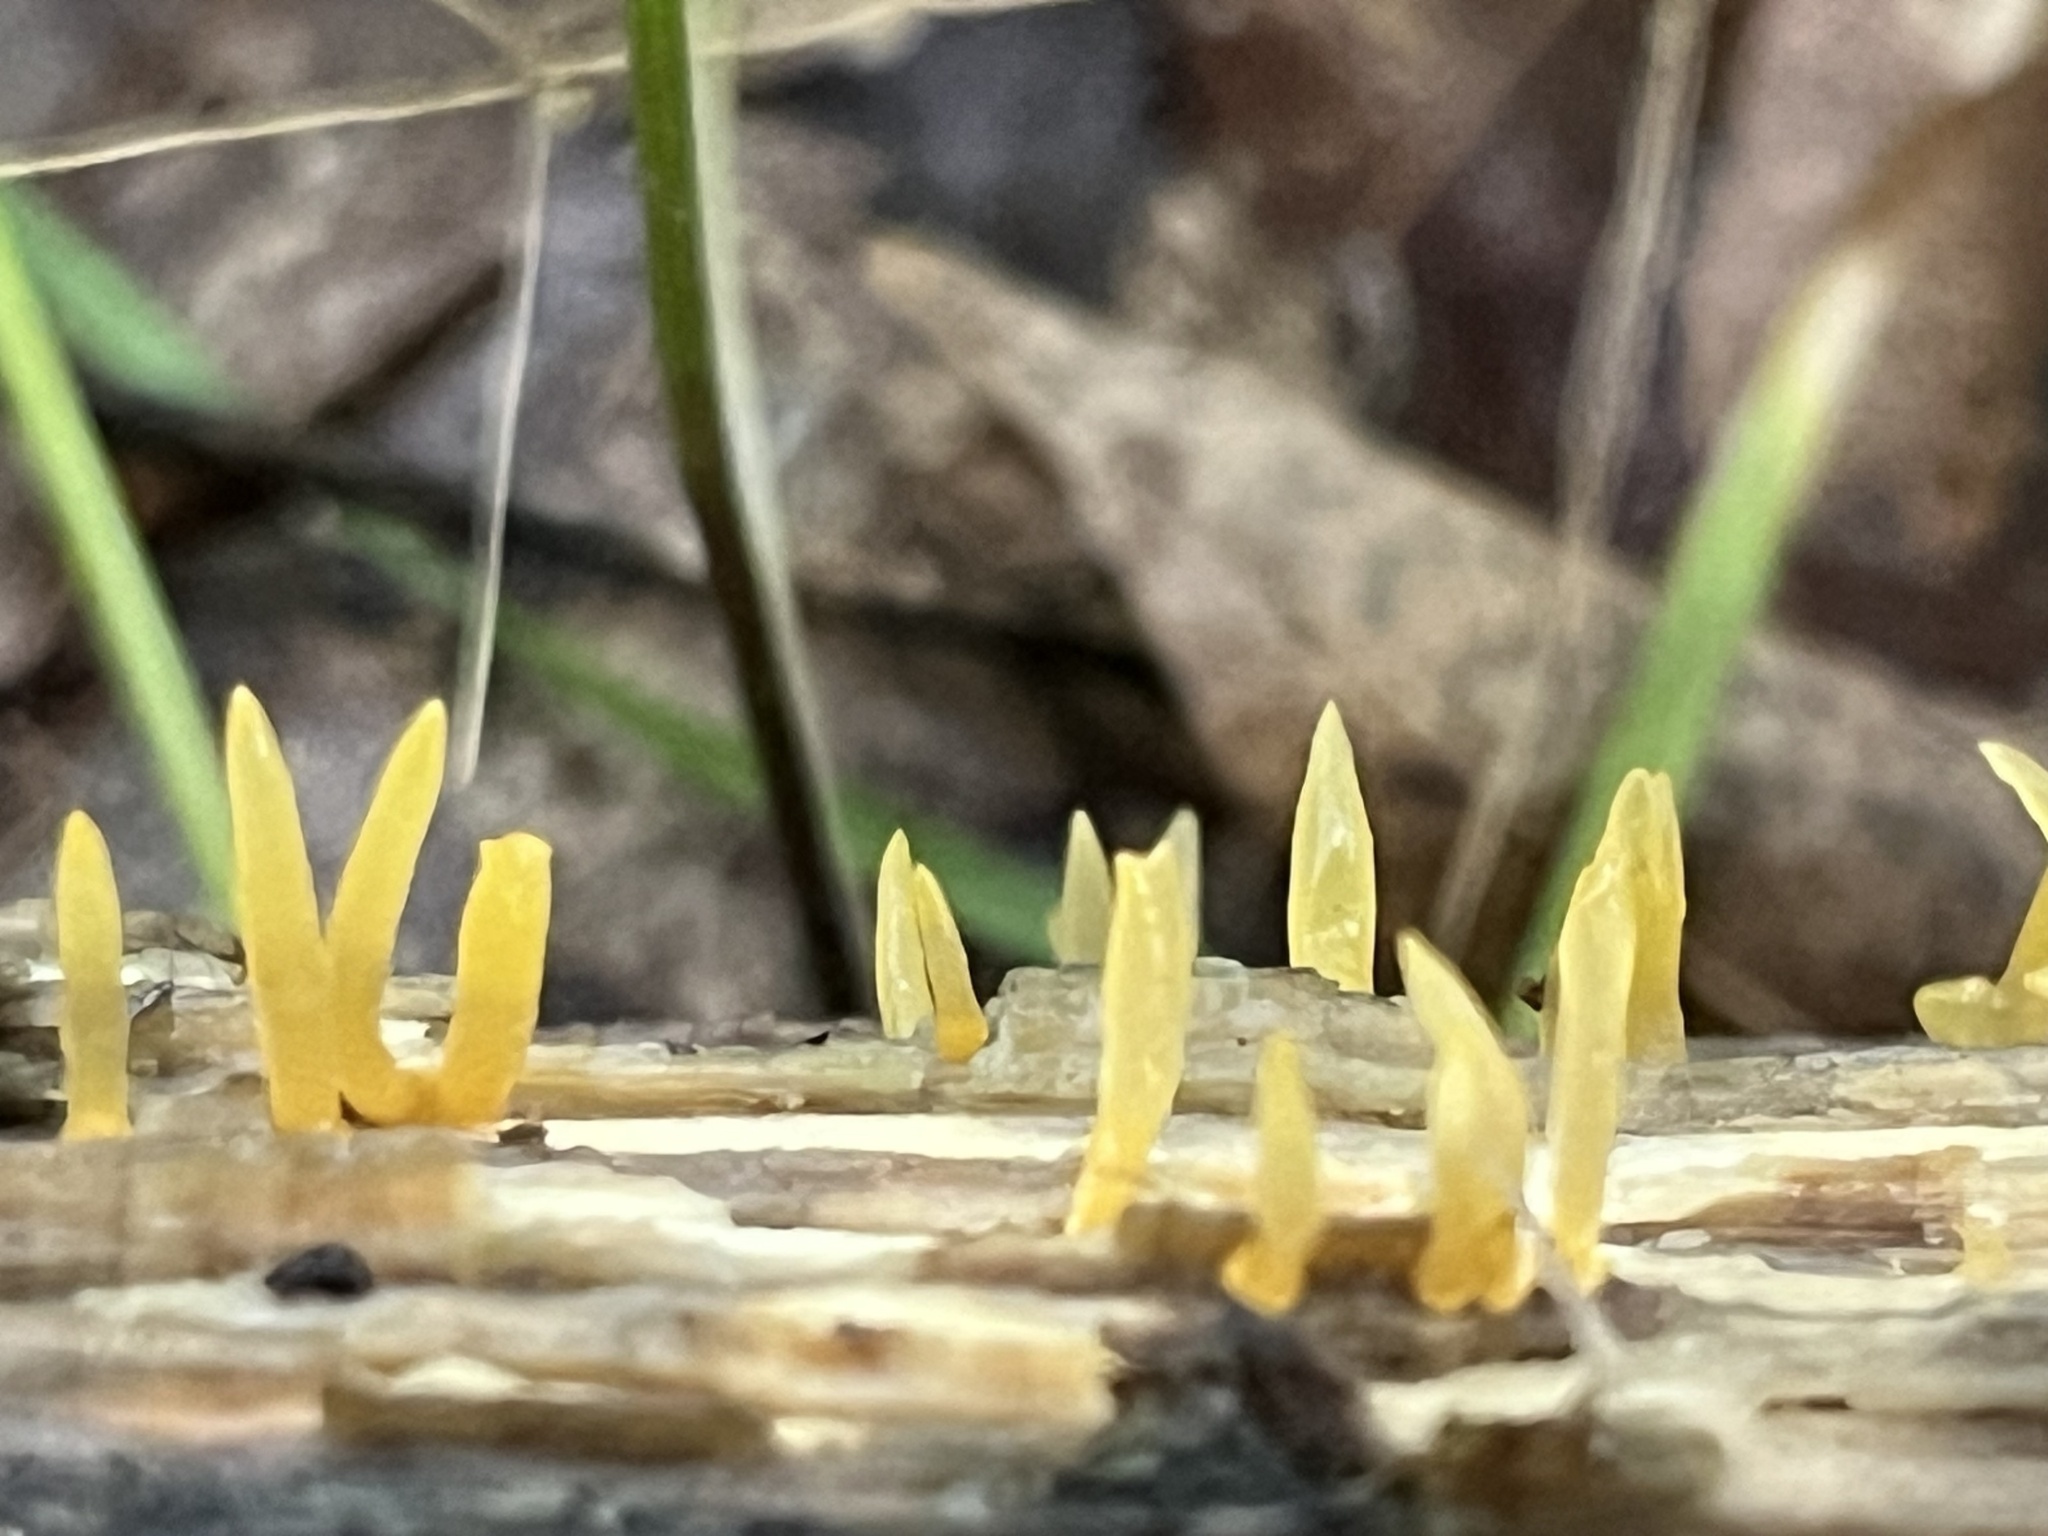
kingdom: Fungi
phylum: Basidiomycota
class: Dacrymycetes
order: Dacrymycetales
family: Dacrymycetaceae
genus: Calocera
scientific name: Calocera cornea
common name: Small stagshorn
